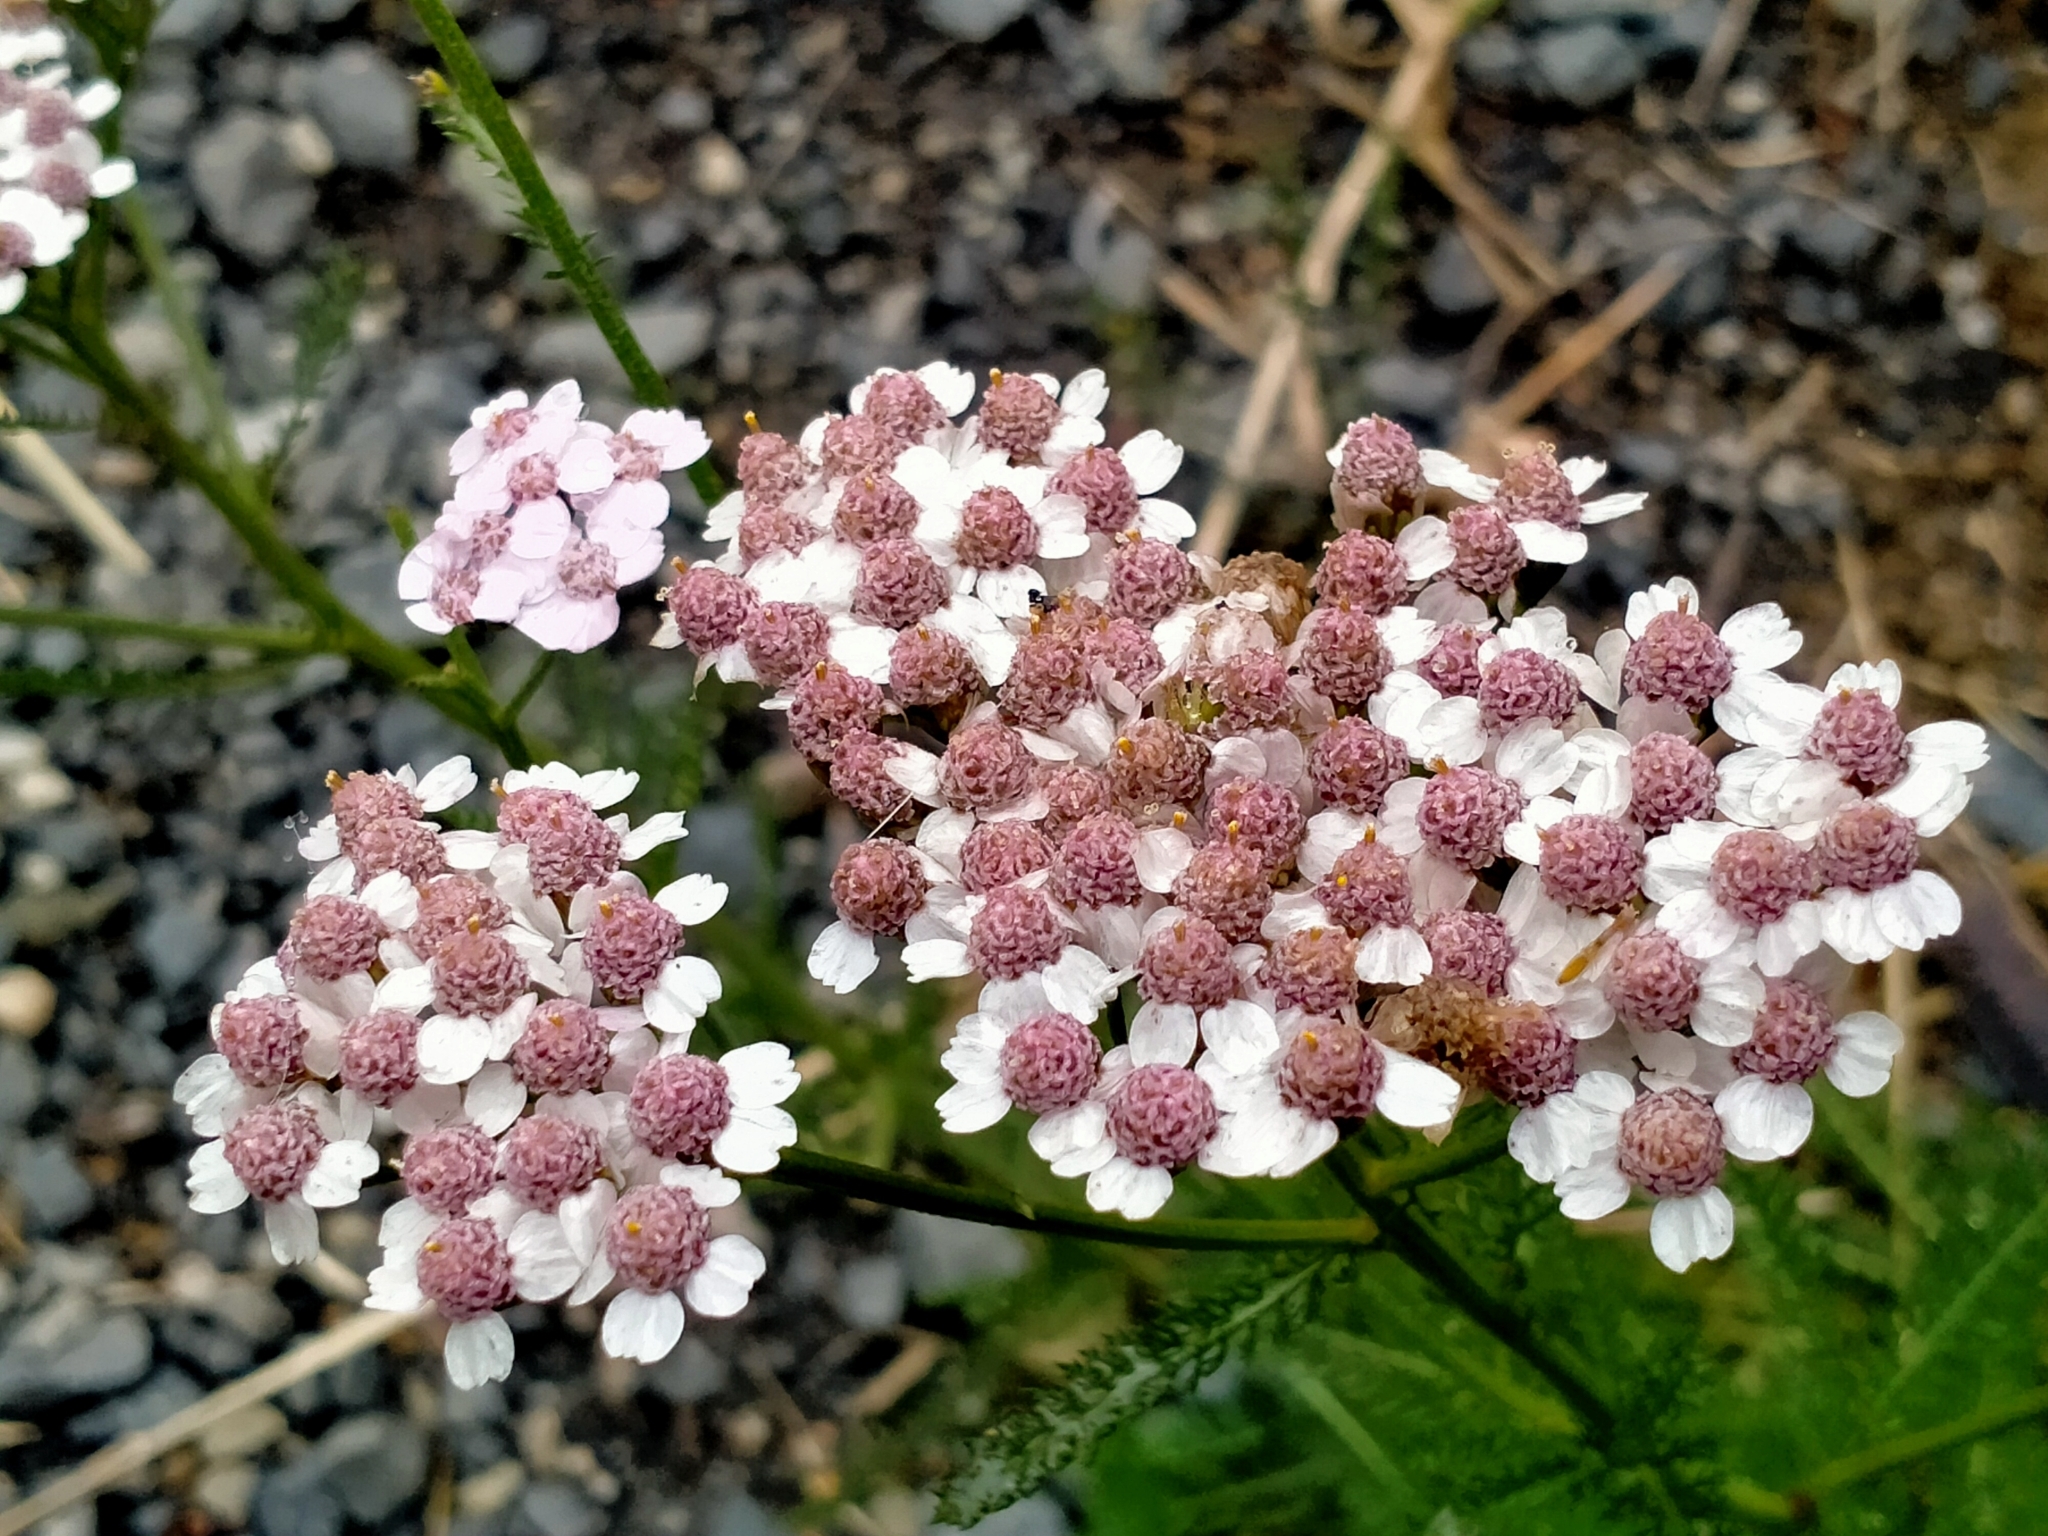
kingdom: Plantae
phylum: Tracheophyta
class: Magnoliopsida
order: Asterales
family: Asteraceae
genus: Achillea
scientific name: Achillea millefolium
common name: Yarrow
